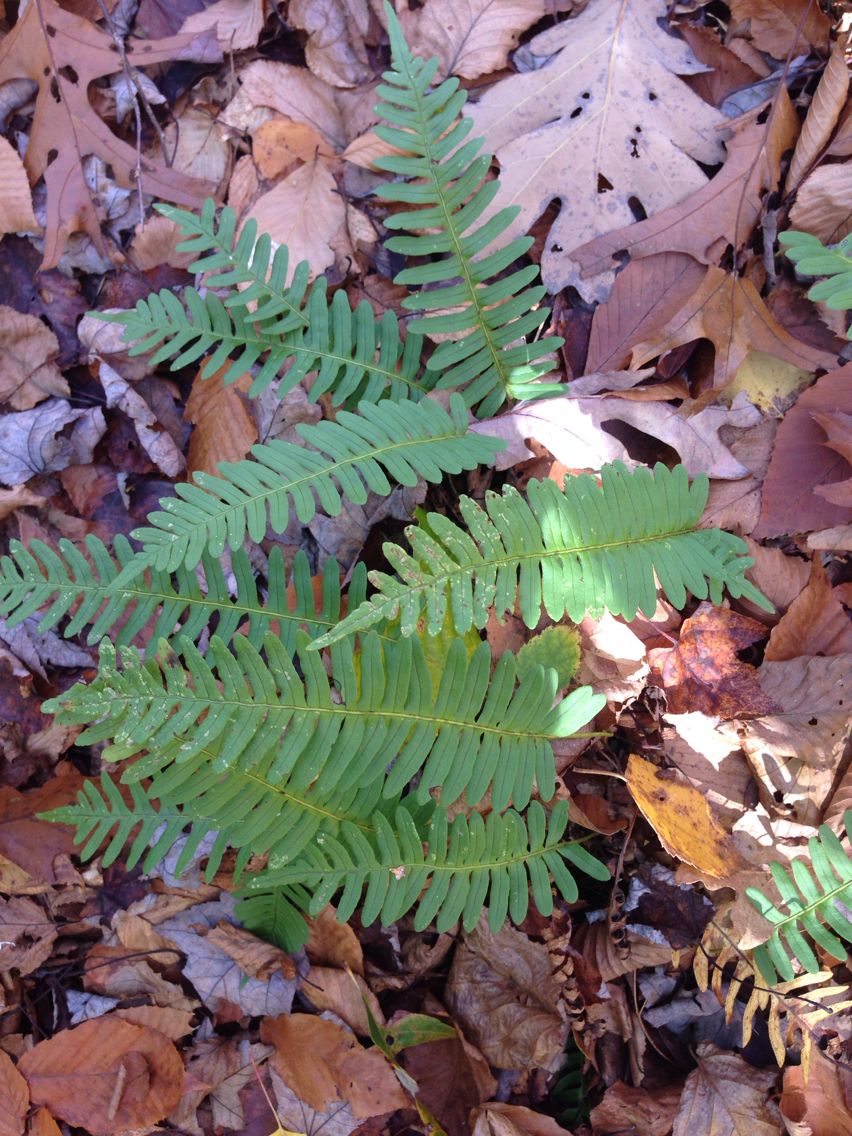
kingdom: Plantae
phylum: Tracheophyta
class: Polypodiopsida
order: Polypodiales
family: Polypodiaceae
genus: Polypodium
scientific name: Polypodium virginianum
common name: American wall fern
